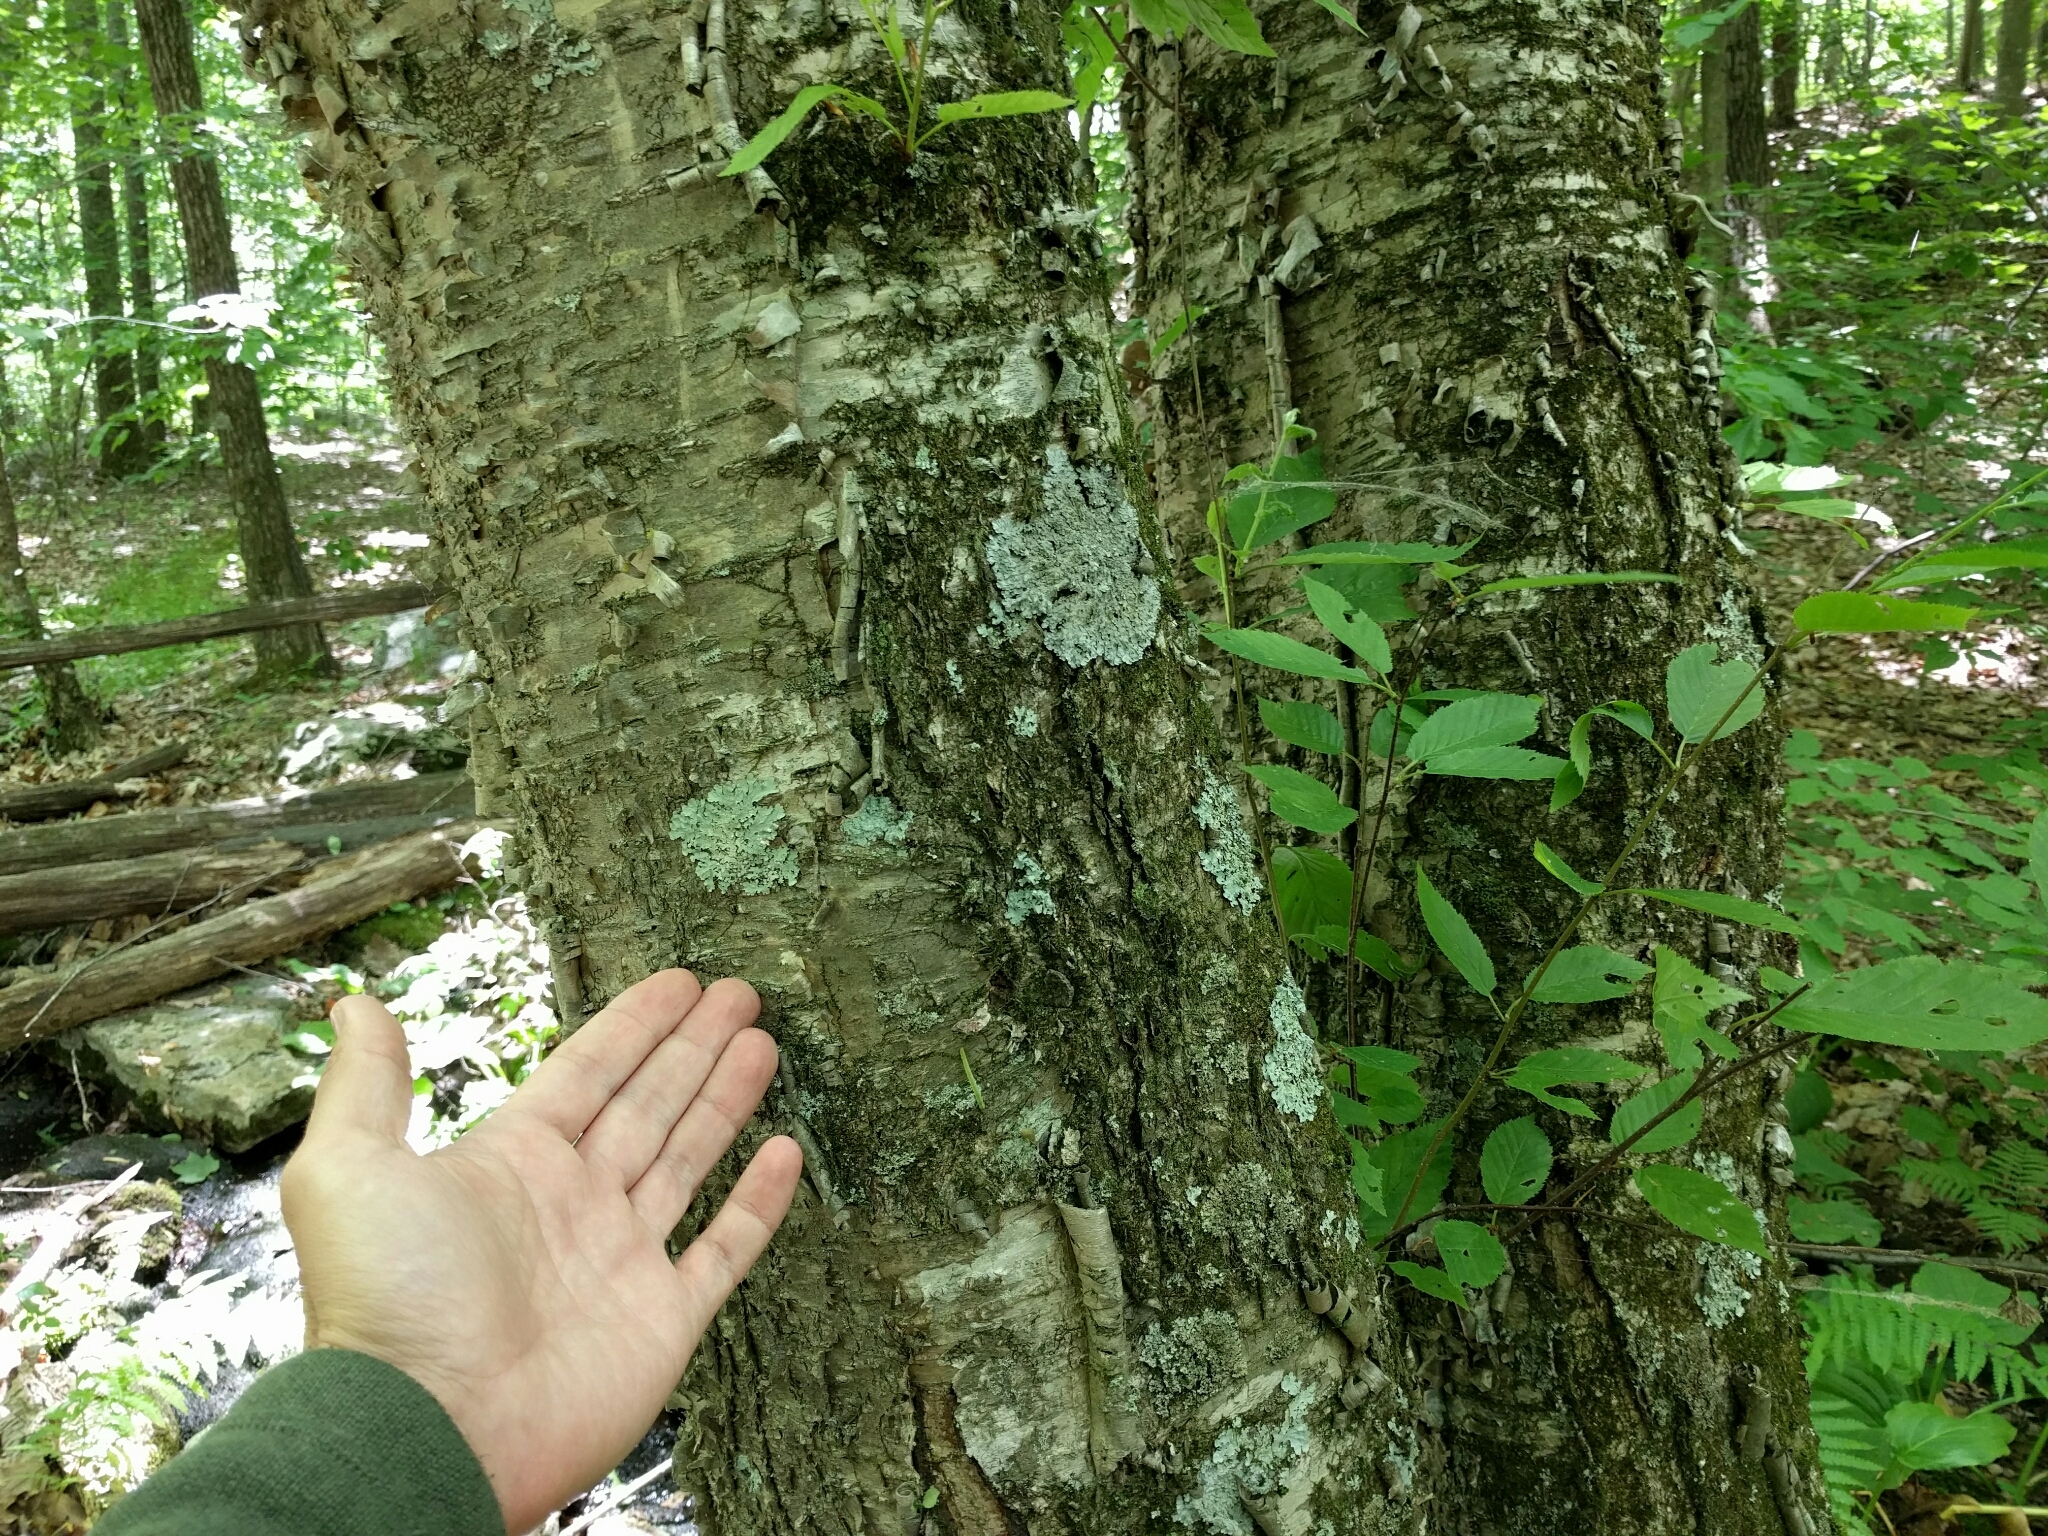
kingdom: Plantae
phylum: Tracheophyta
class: Magnoliopsida
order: Fagales
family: Betulaceae
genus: Betula
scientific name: Betula alleghaniensis
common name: Yellow birch
